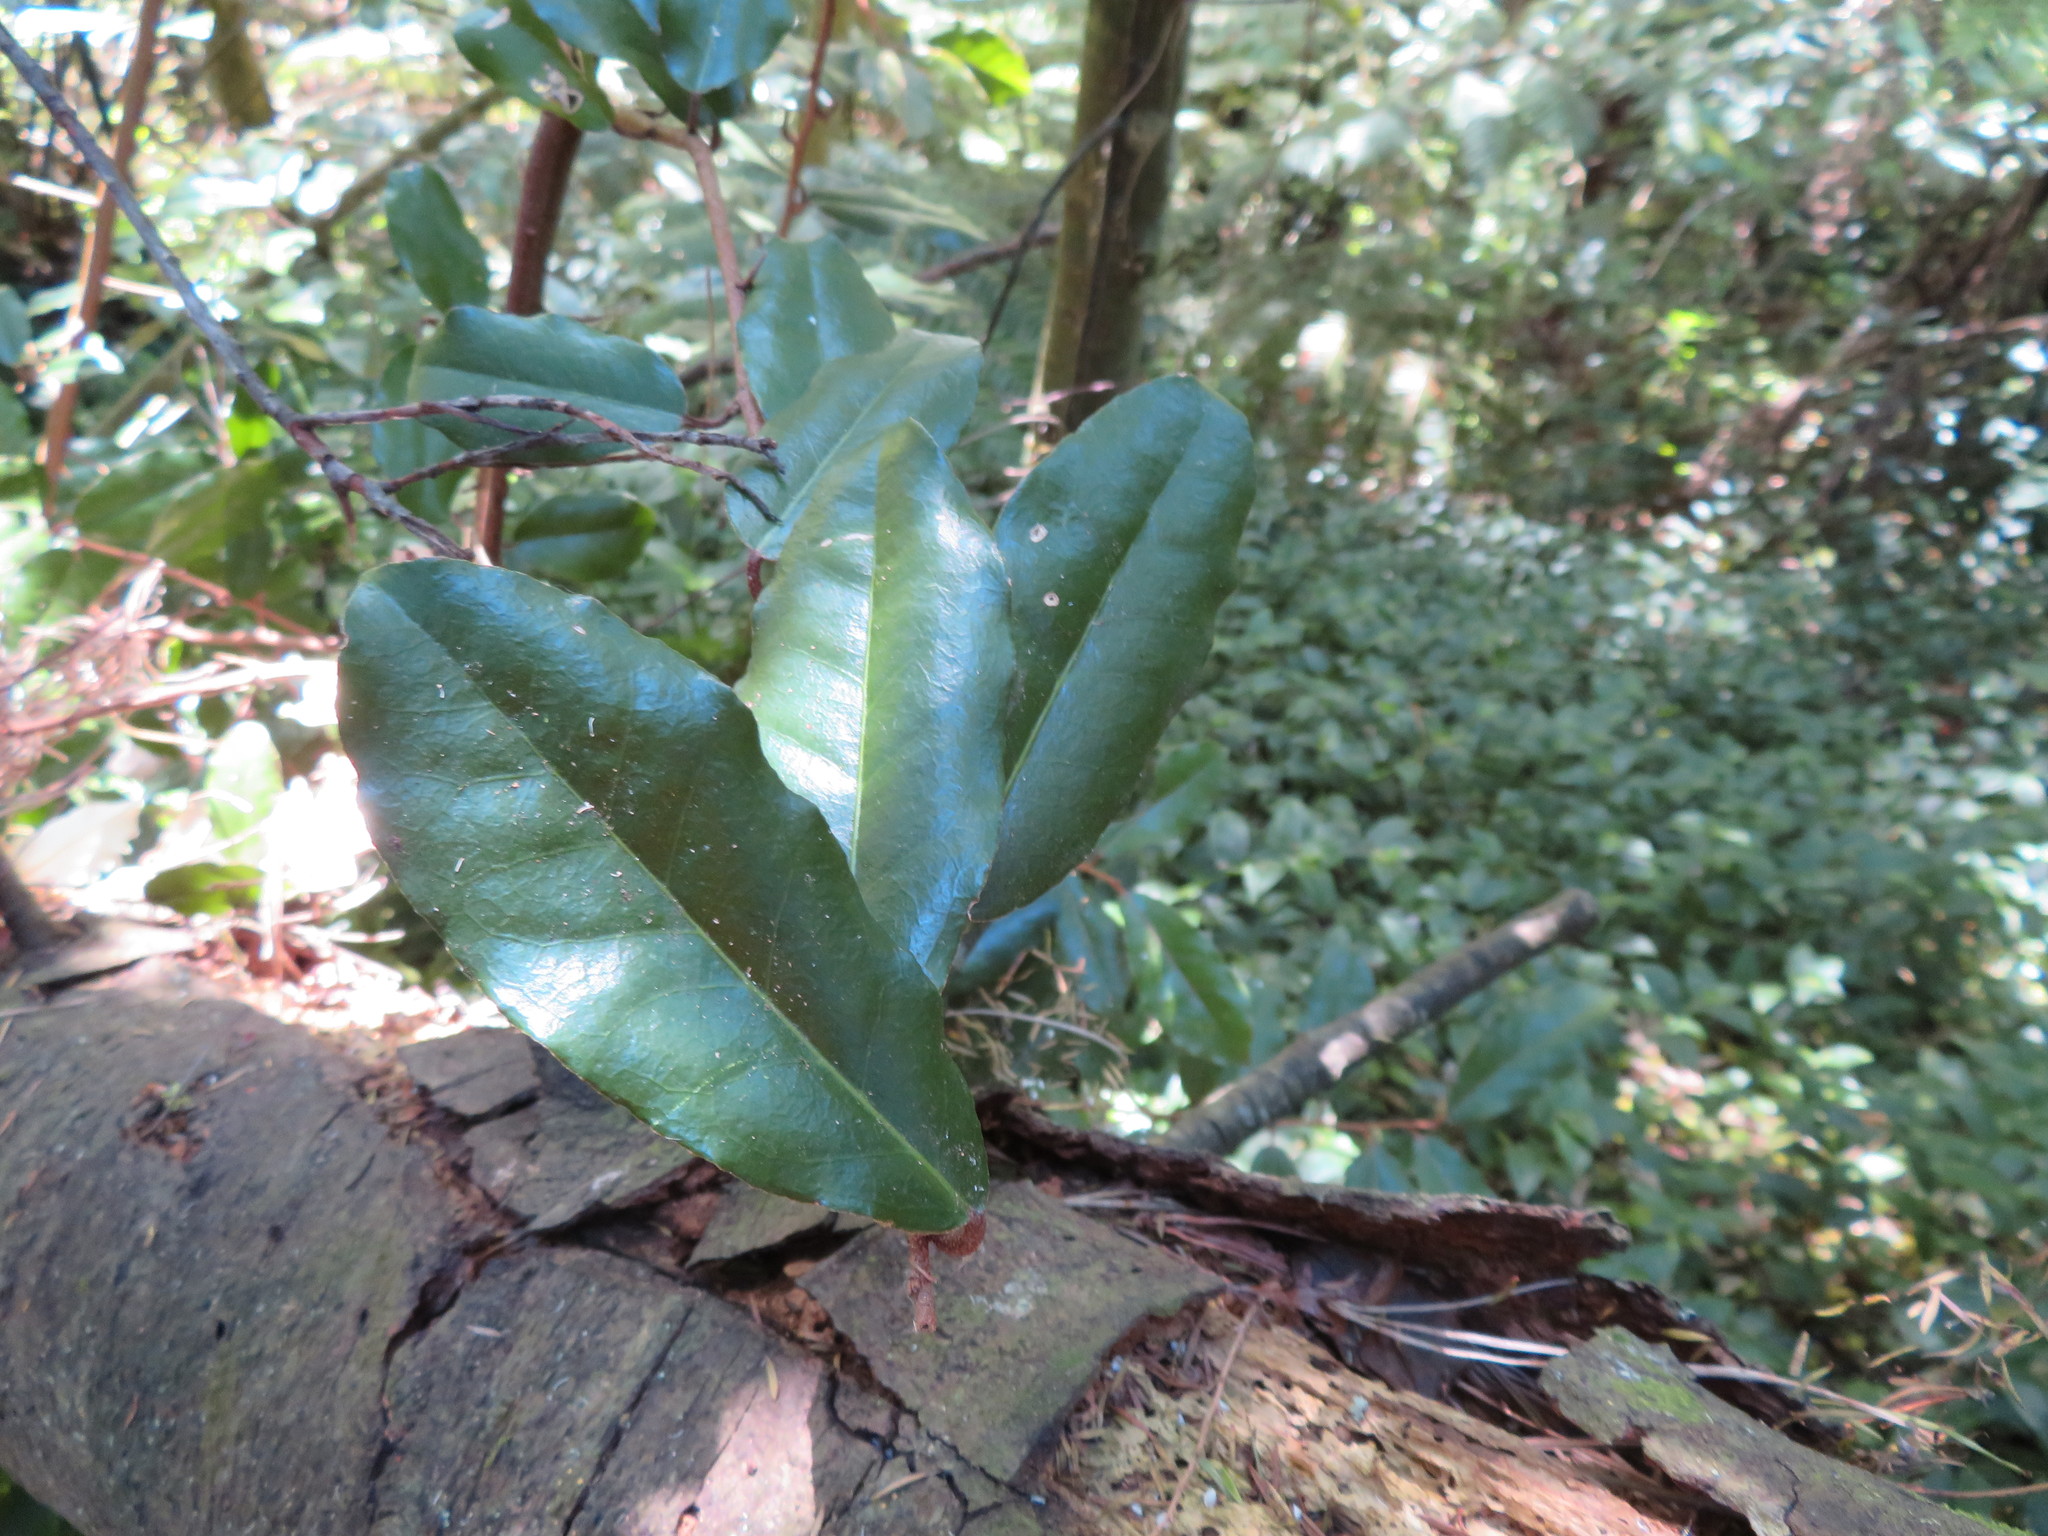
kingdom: Plantae
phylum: Tracheophyta
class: Magnoliopsida
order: Rosales
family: Elaeagnaceae
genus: Elaeagnus
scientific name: Elaeagnus reflexa
